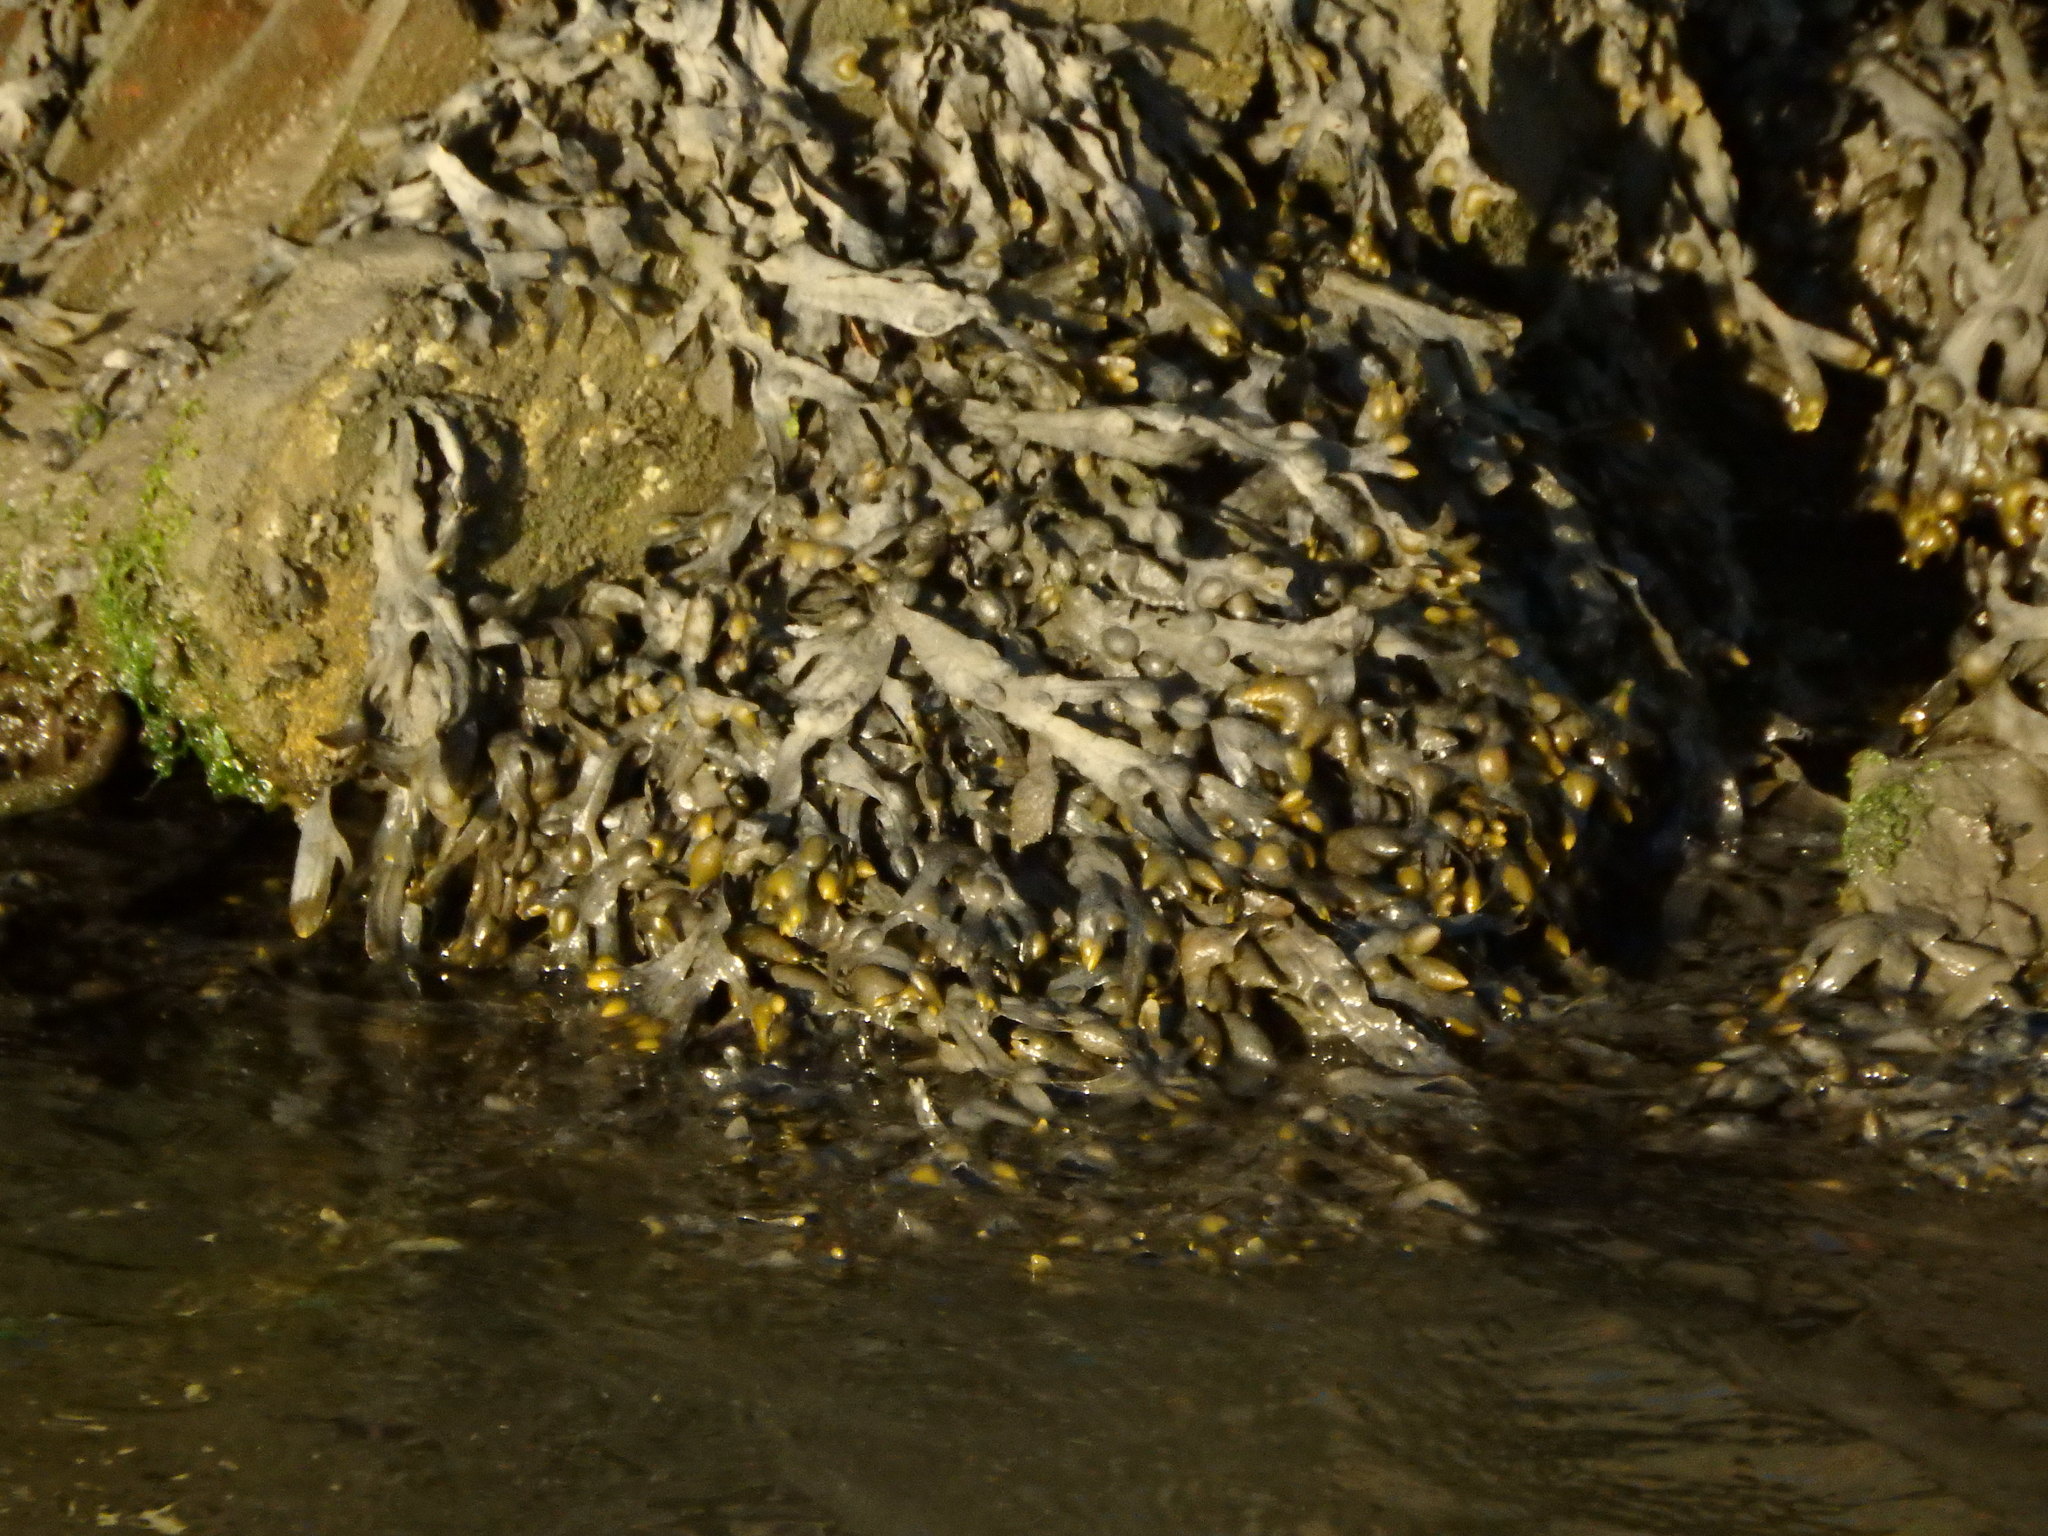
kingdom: Chromista
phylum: Ochrophyta
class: Phaeophyceae
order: Fucales
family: Fucaceae
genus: Fucus
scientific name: Fucus vesiculosus
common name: Bladder wrack
